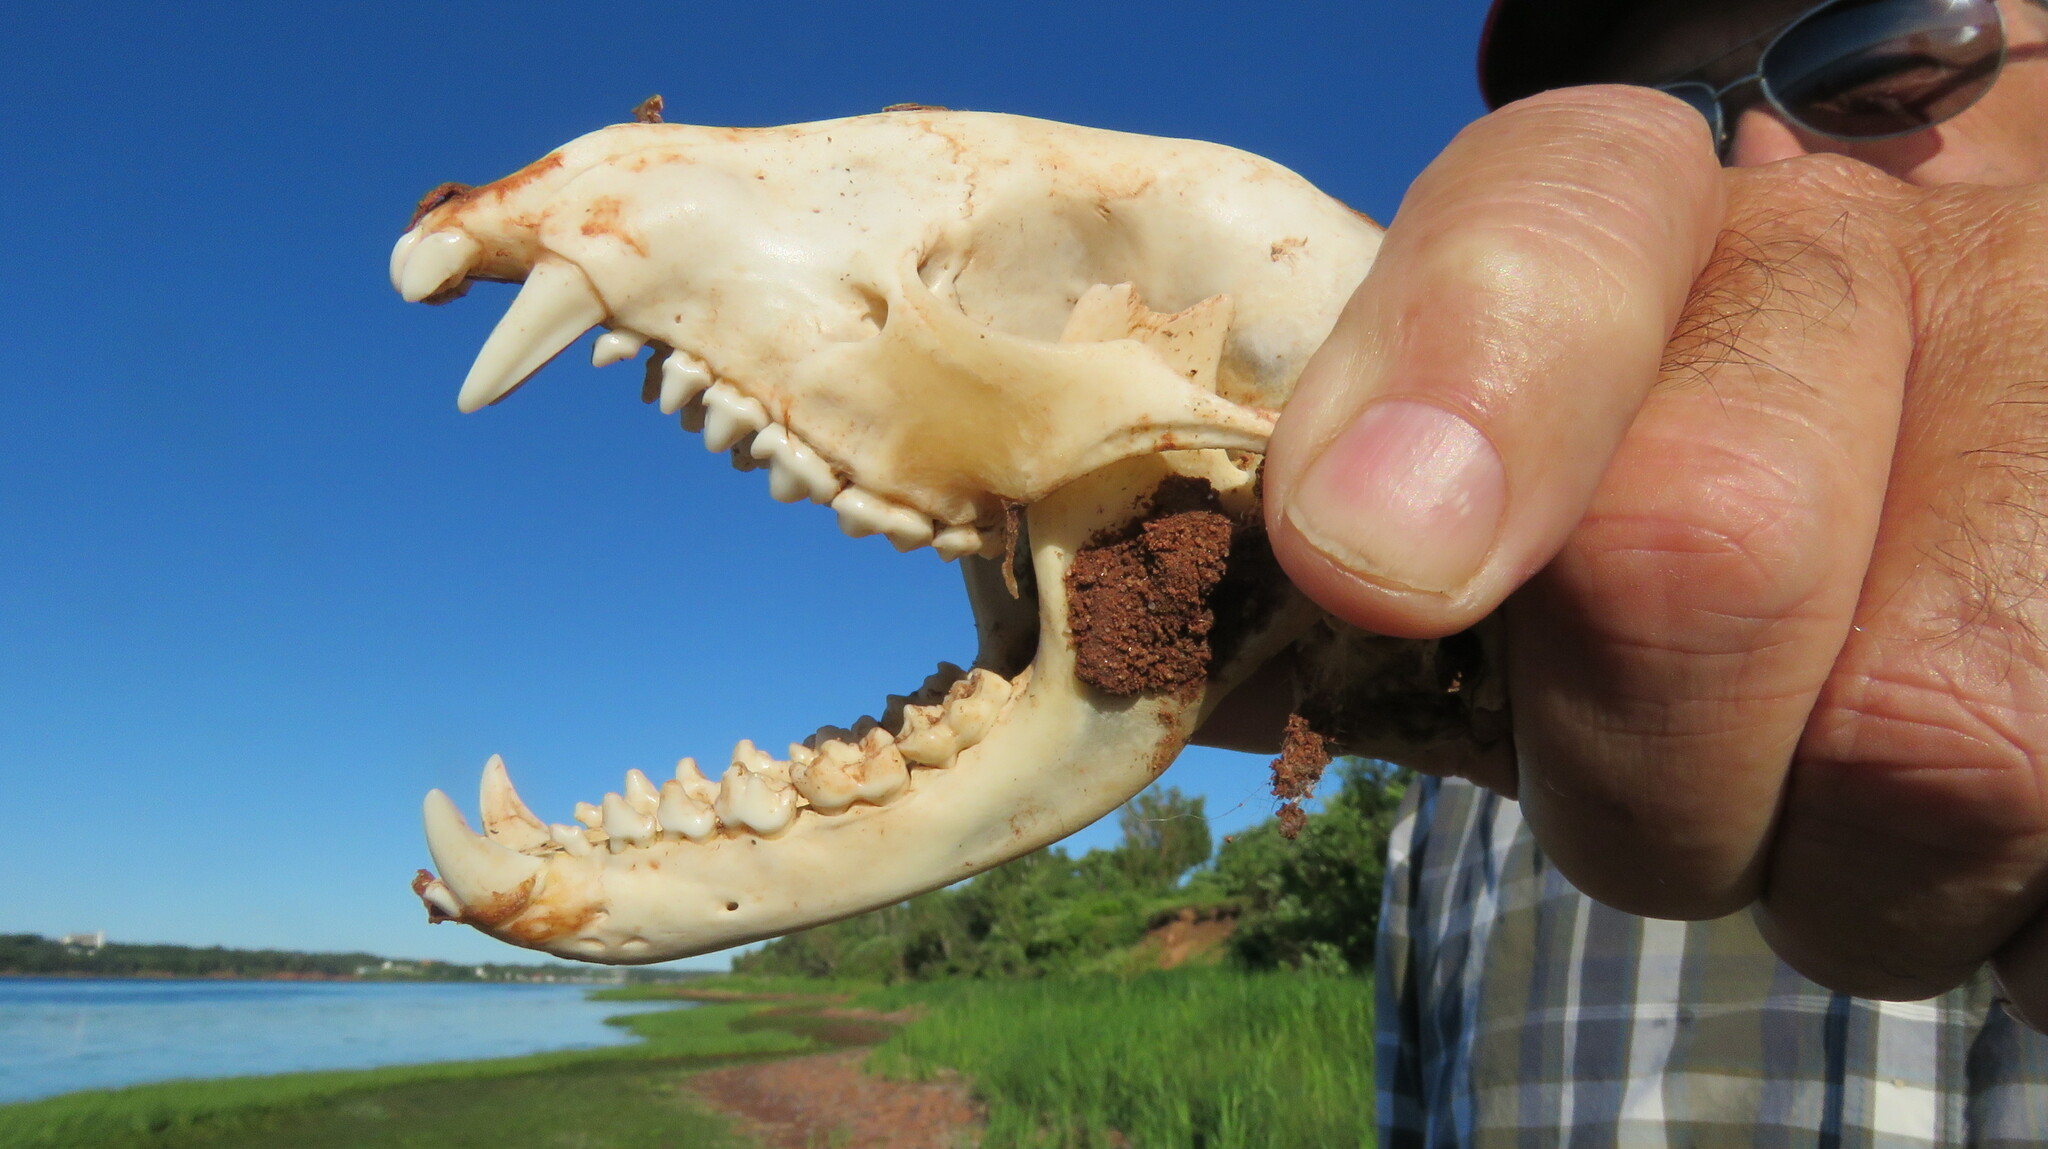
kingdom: Animalia
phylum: Chordata
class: Mammalia
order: Carnivora
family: Procyonidae
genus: Procyon
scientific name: Procyon lotor
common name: Raccoon
